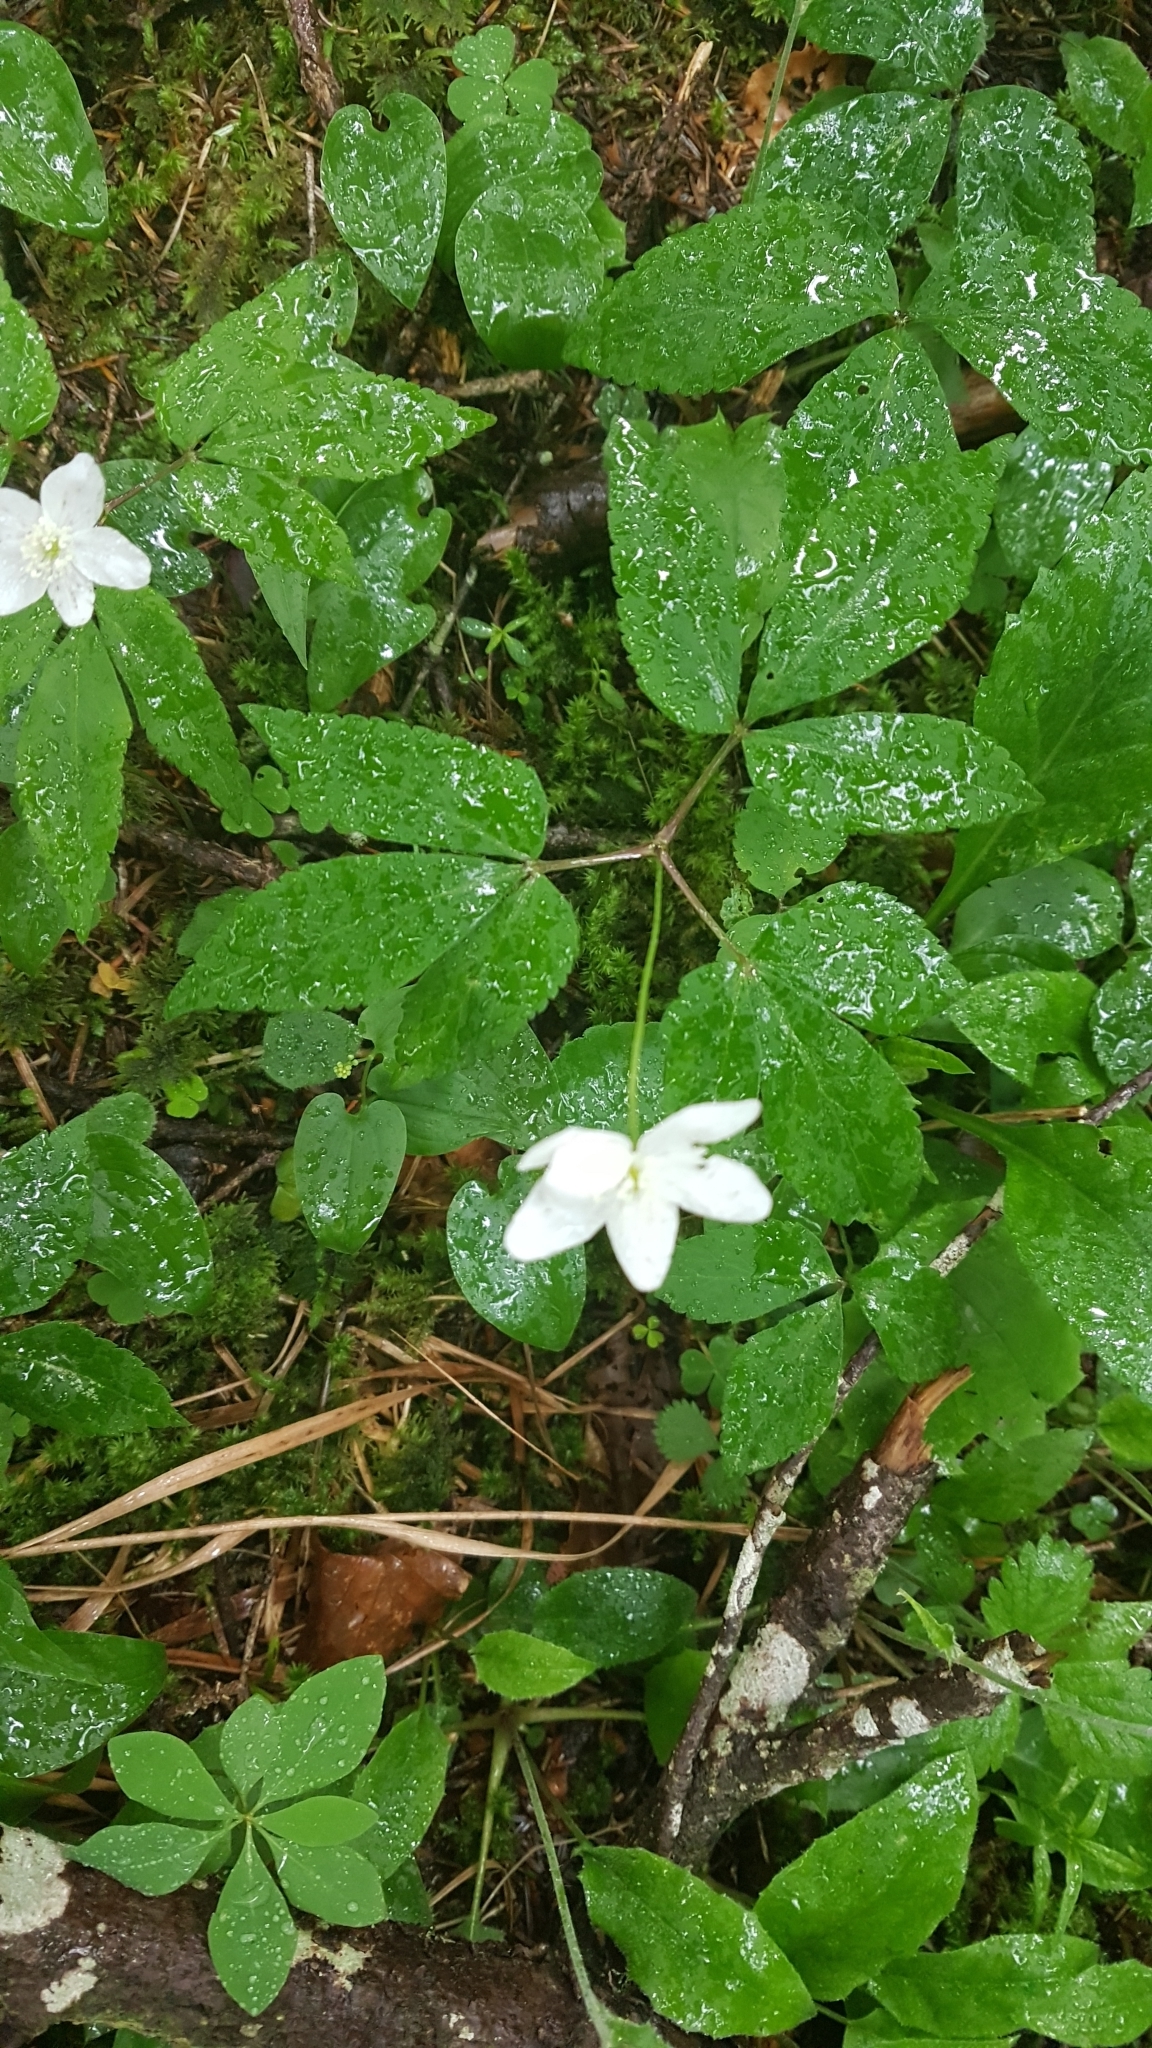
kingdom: Plantae
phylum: Tracheophyta
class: Magnoliopsida
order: Ranunculales
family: Ranunculaceae
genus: Anemone
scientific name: Anemone trifolia
